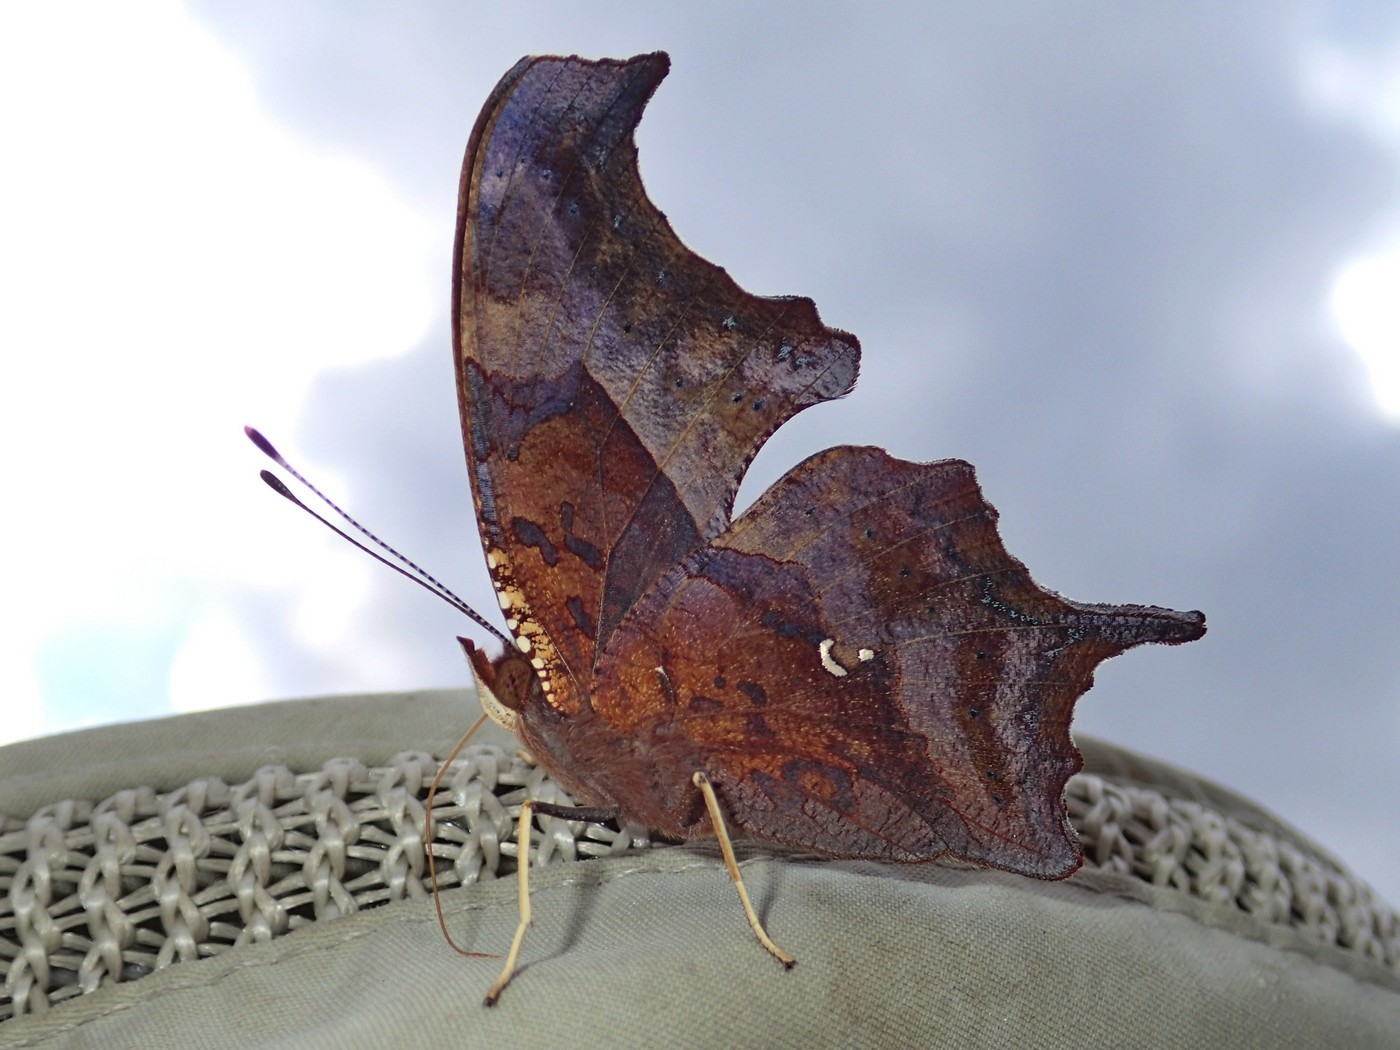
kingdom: Animalia
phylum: Arthropoda
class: Insecta
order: Lepidoptera
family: Nymphalidae
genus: Polygonia
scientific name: Polygonia interrogationis
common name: Question mark
